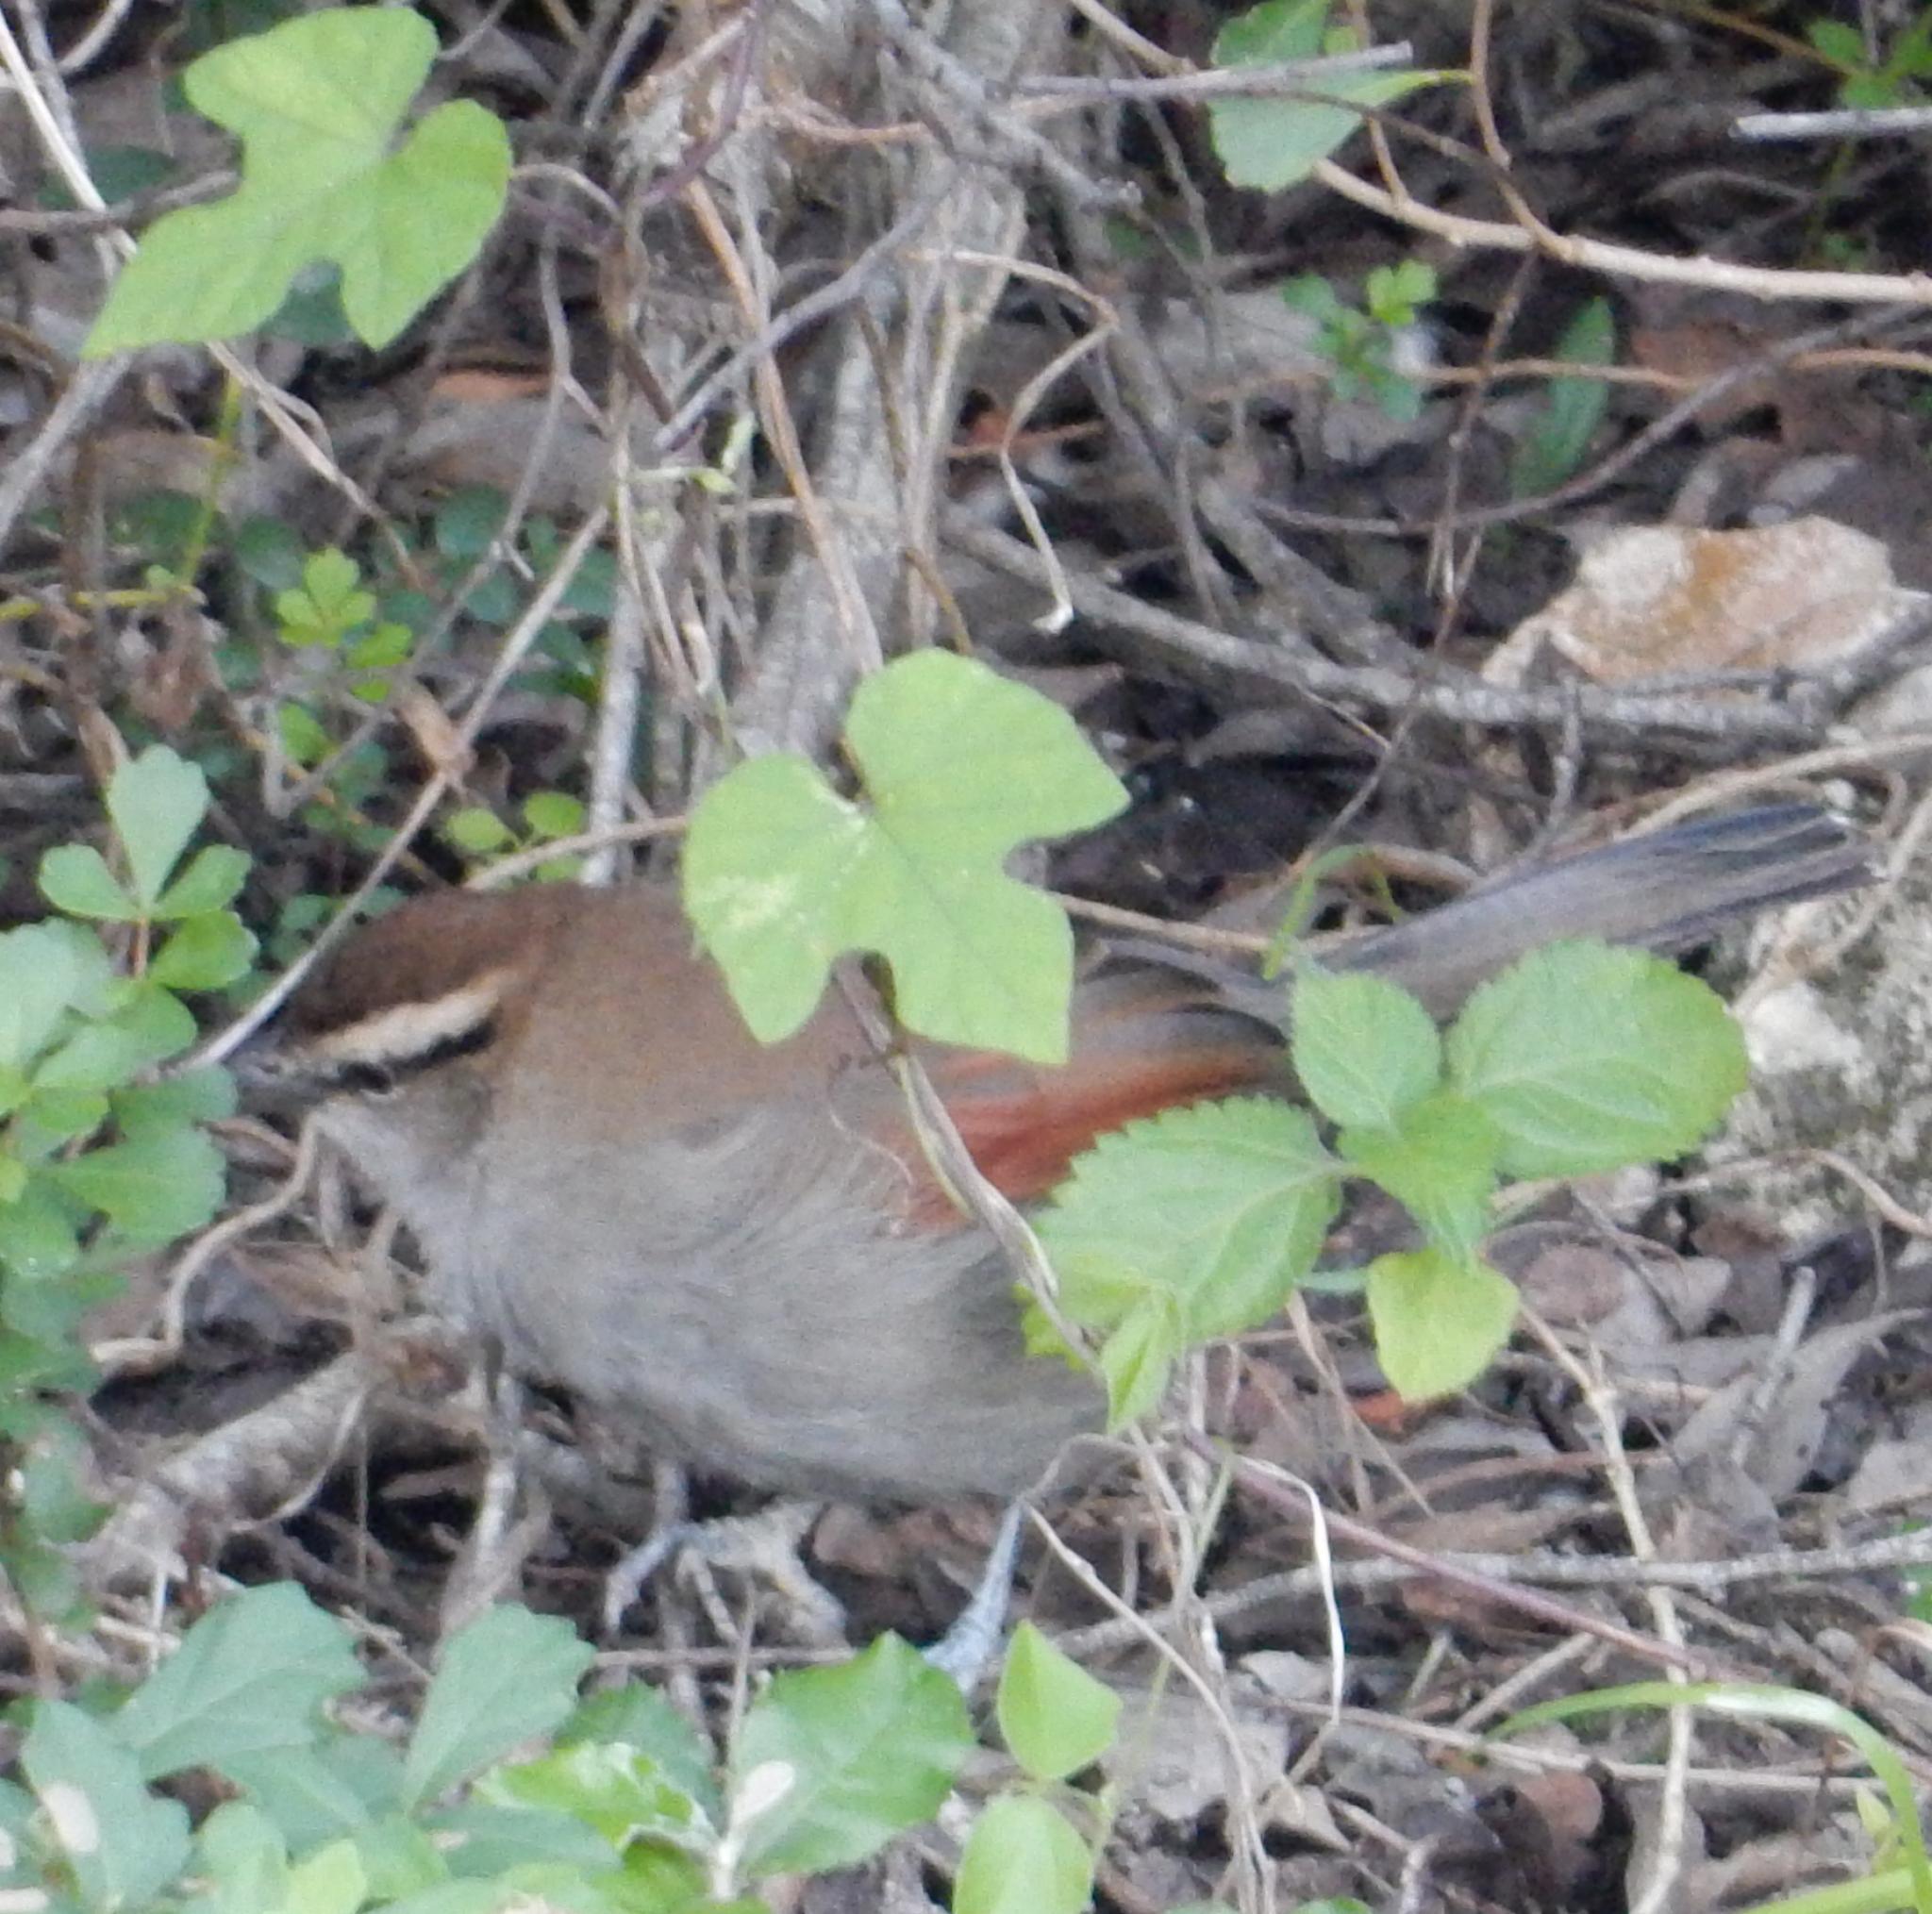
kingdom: Animalia
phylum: Chordata
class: Aves
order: Passeriformes
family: Malaconotidae
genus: Tchagra
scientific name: Tchagra tchagra
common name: Southern tchagra
